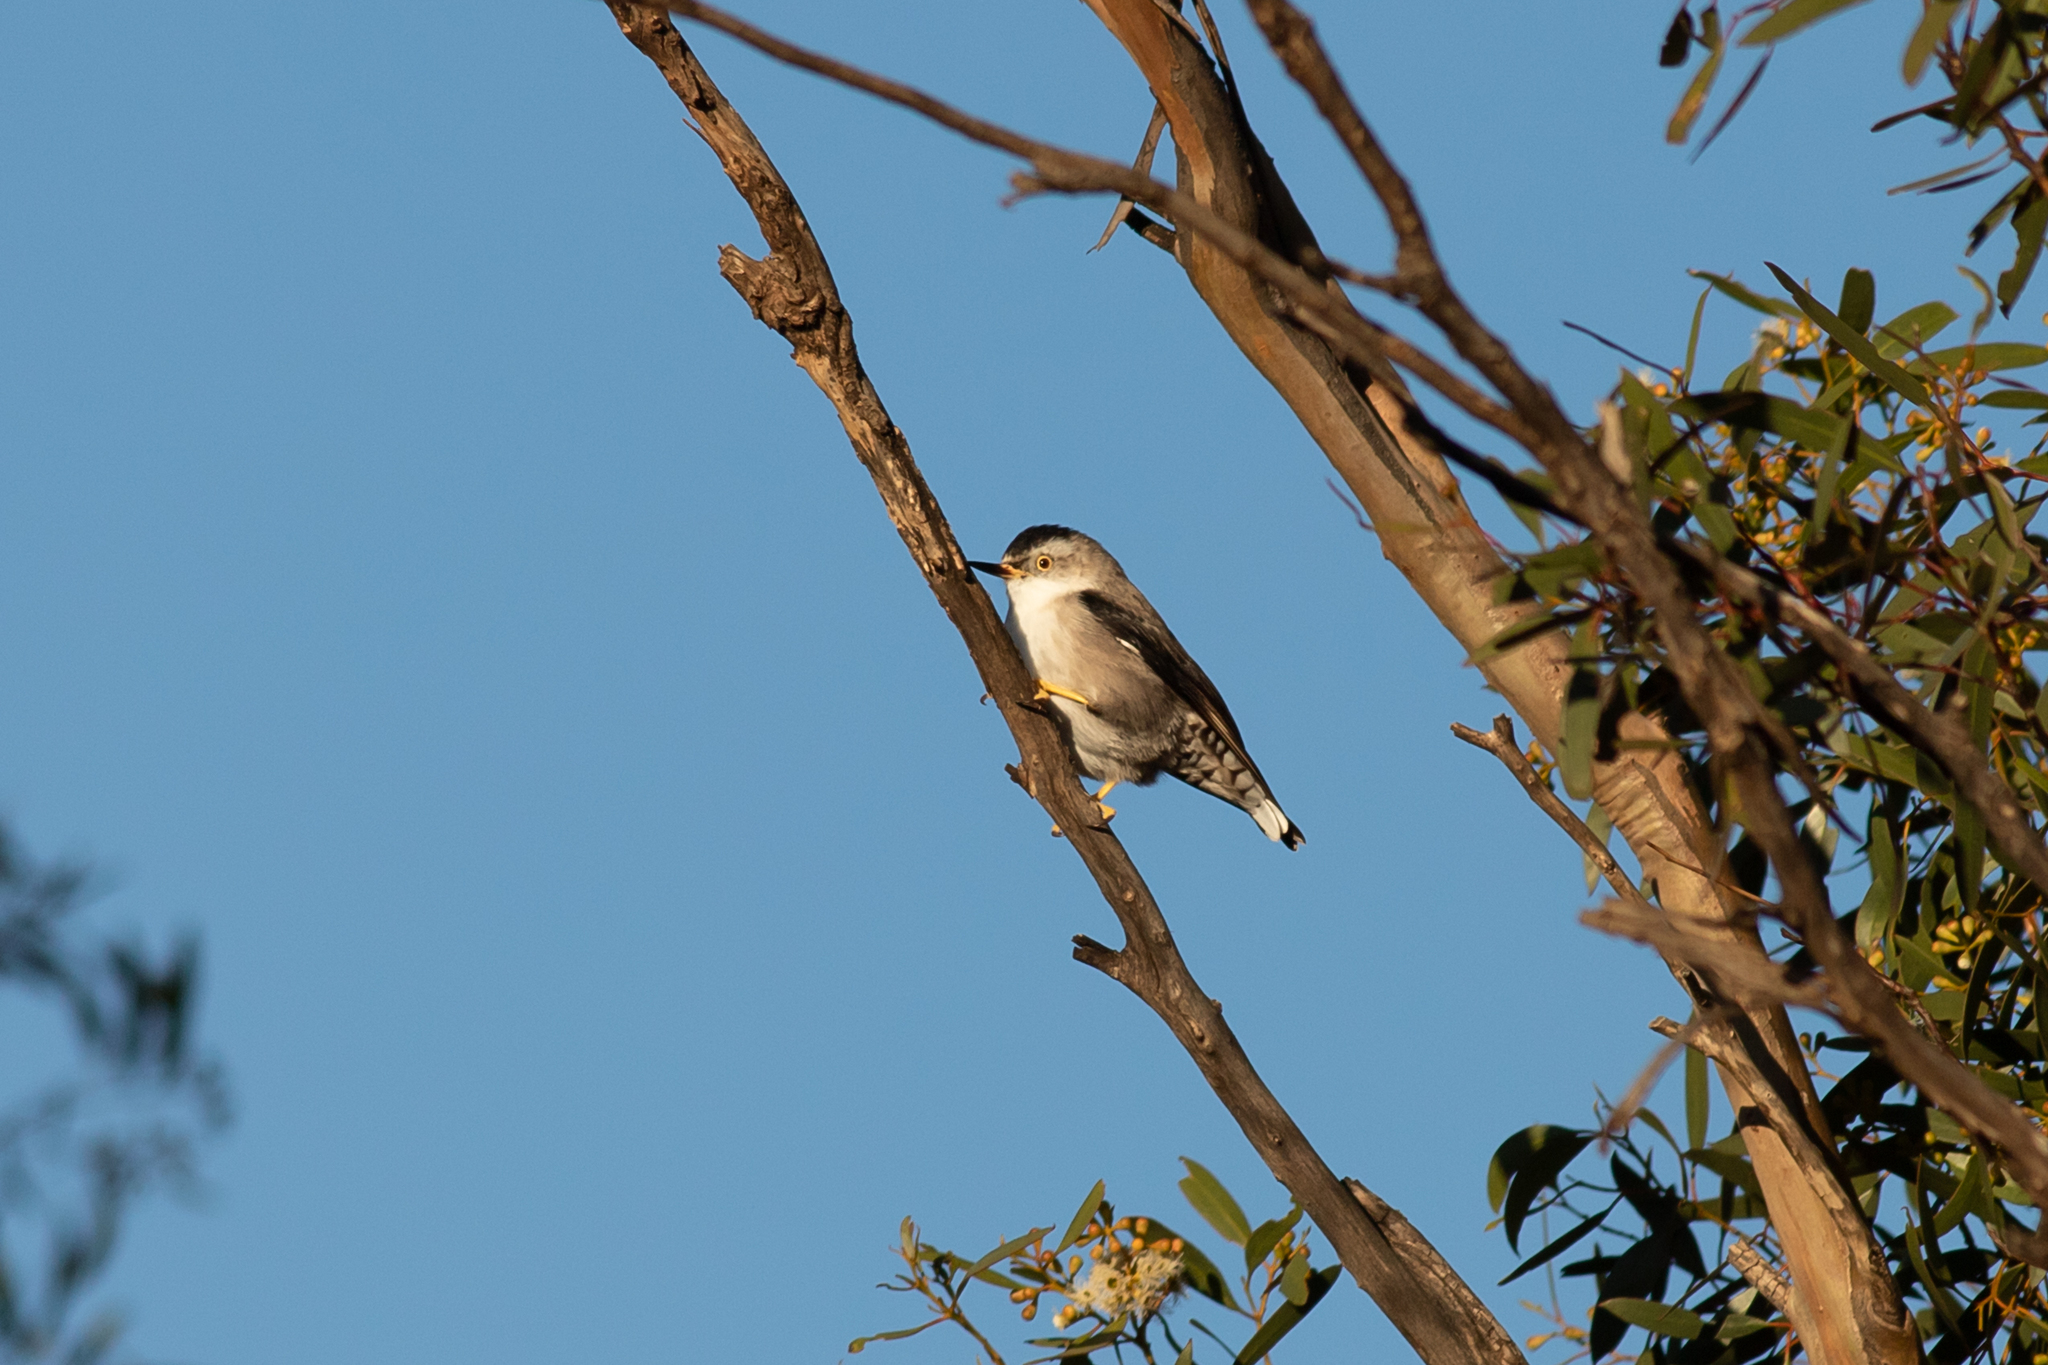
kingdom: Animalia
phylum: Chordata
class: Aves
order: Passeriformes
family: Neosittidae
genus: Daphoenositta
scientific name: Daphoenositta chrysoptera
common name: Varied sittella
